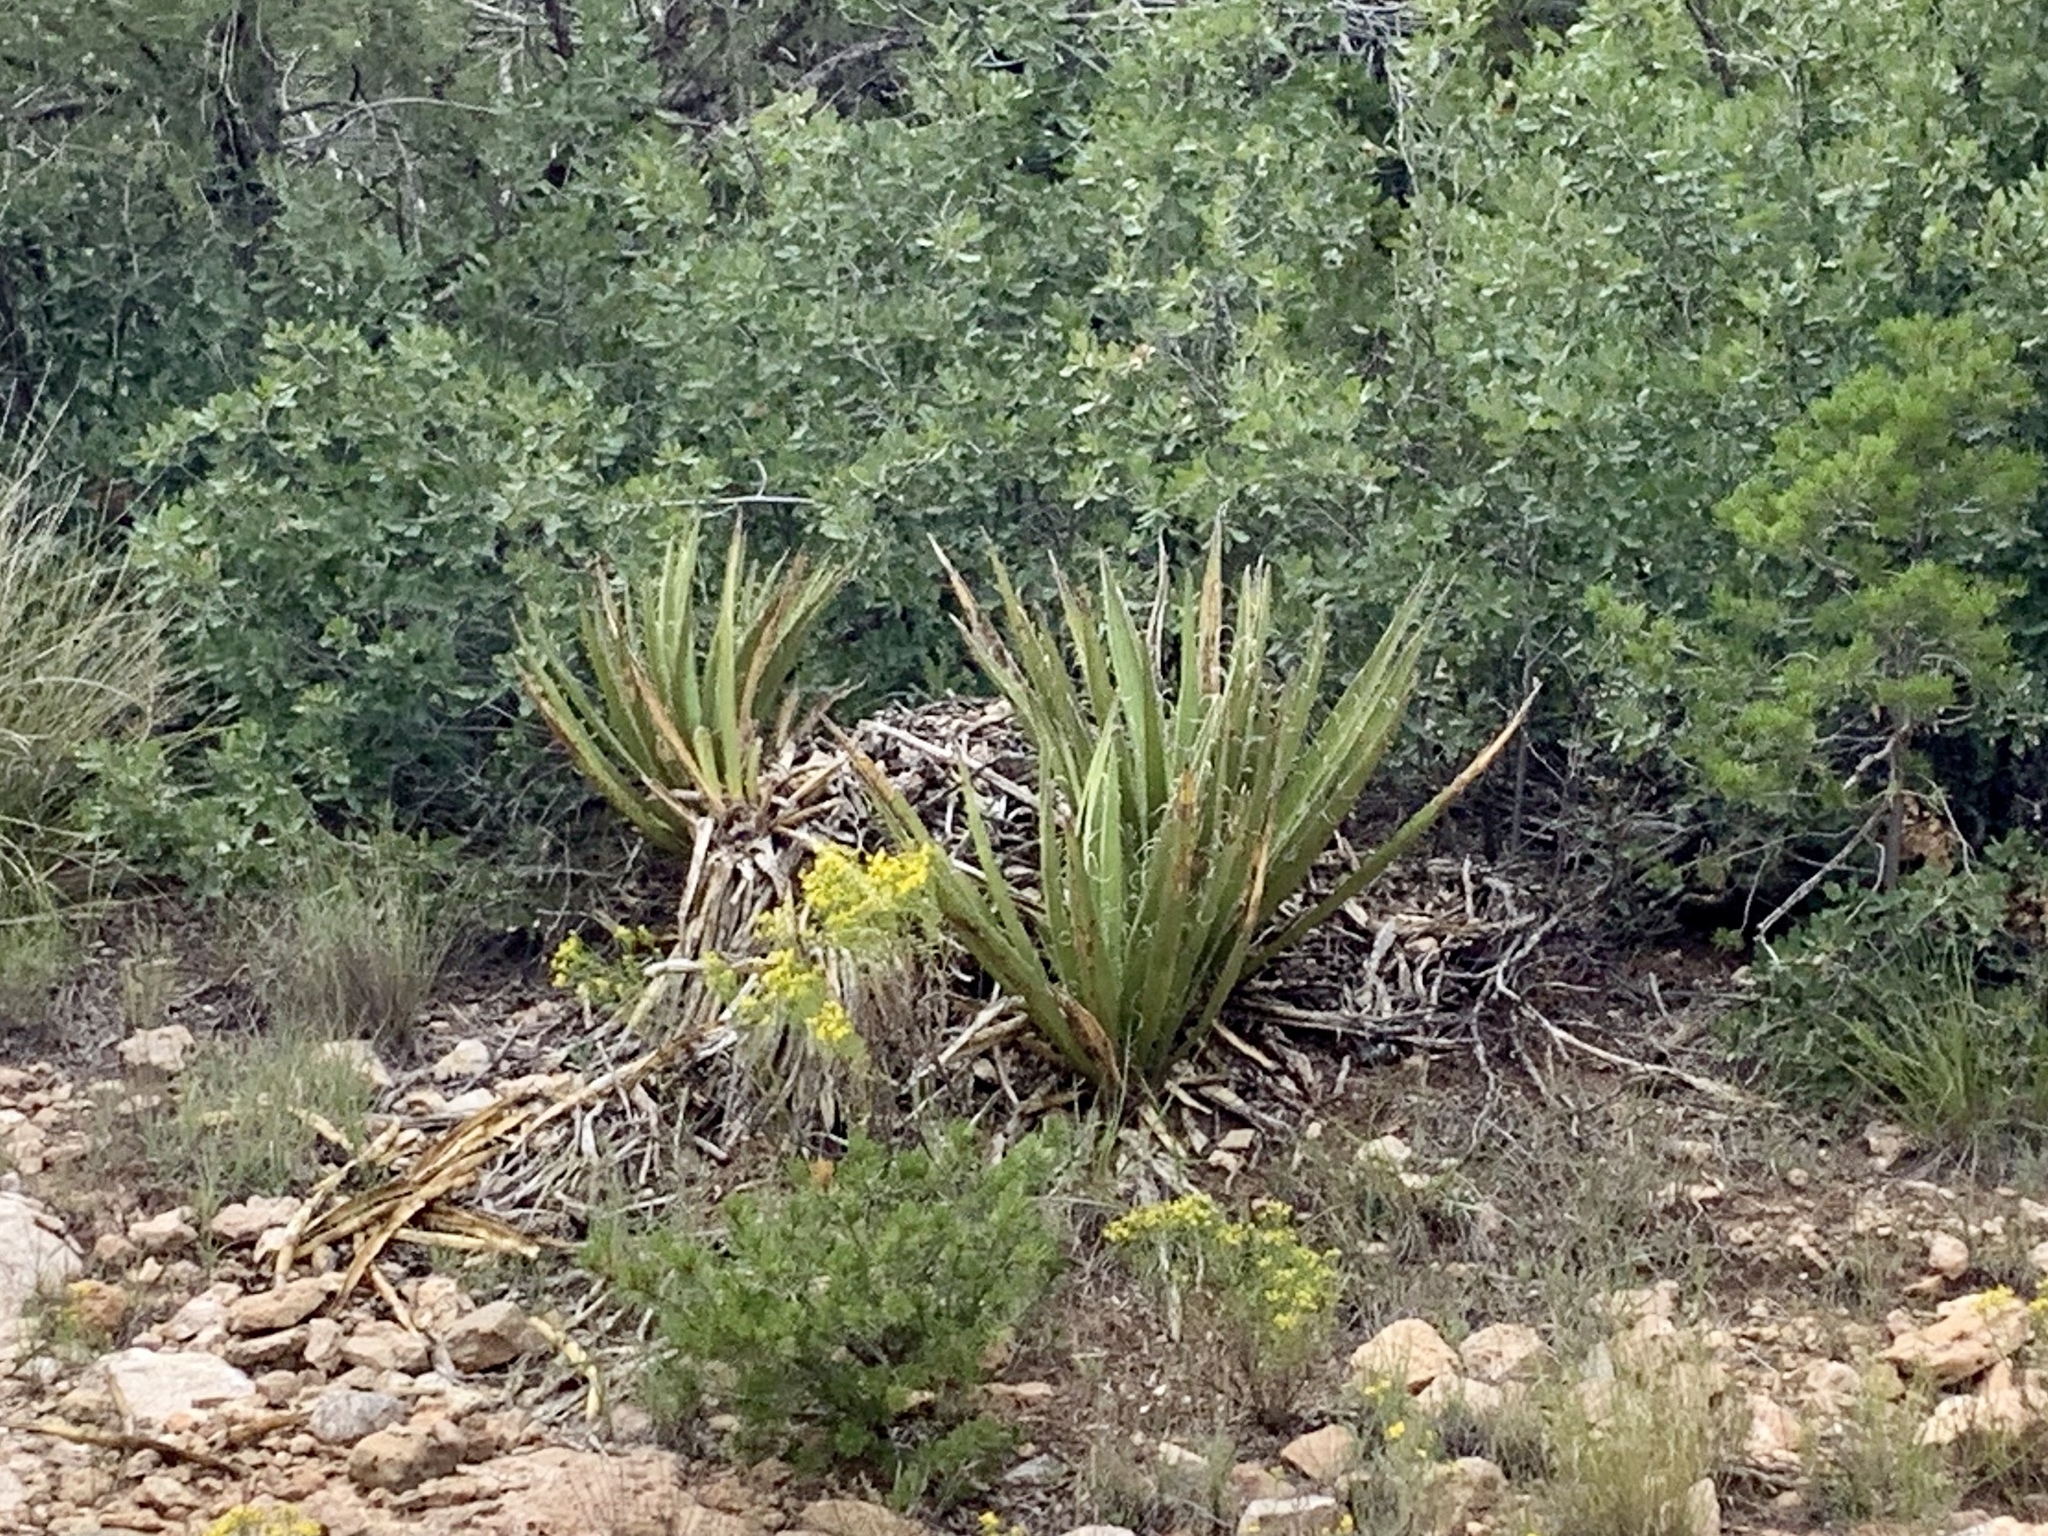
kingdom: Plantae
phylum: Tracheophyta
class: Liliopsida
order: Asparagales
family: Asparagaceae
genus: Yucca
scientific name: Yucca baccata
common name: Banana yucca
